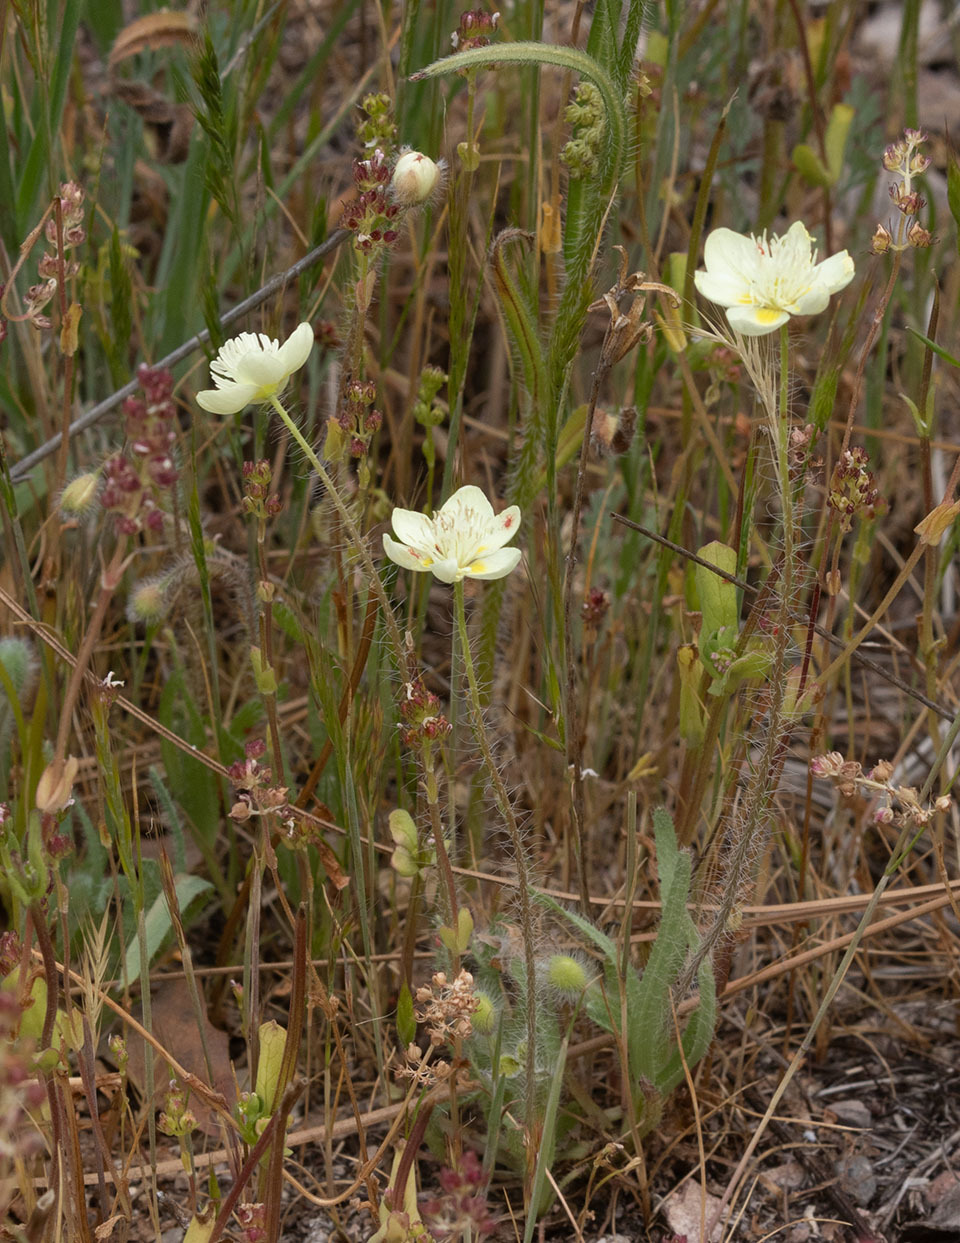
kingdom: Plantae
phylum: Tracheophyta
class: Magnoliopsida
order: Ranunculales
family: Papaveraceae
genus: Platystemon
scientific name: Platystemon californicus
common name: Cream-cups
